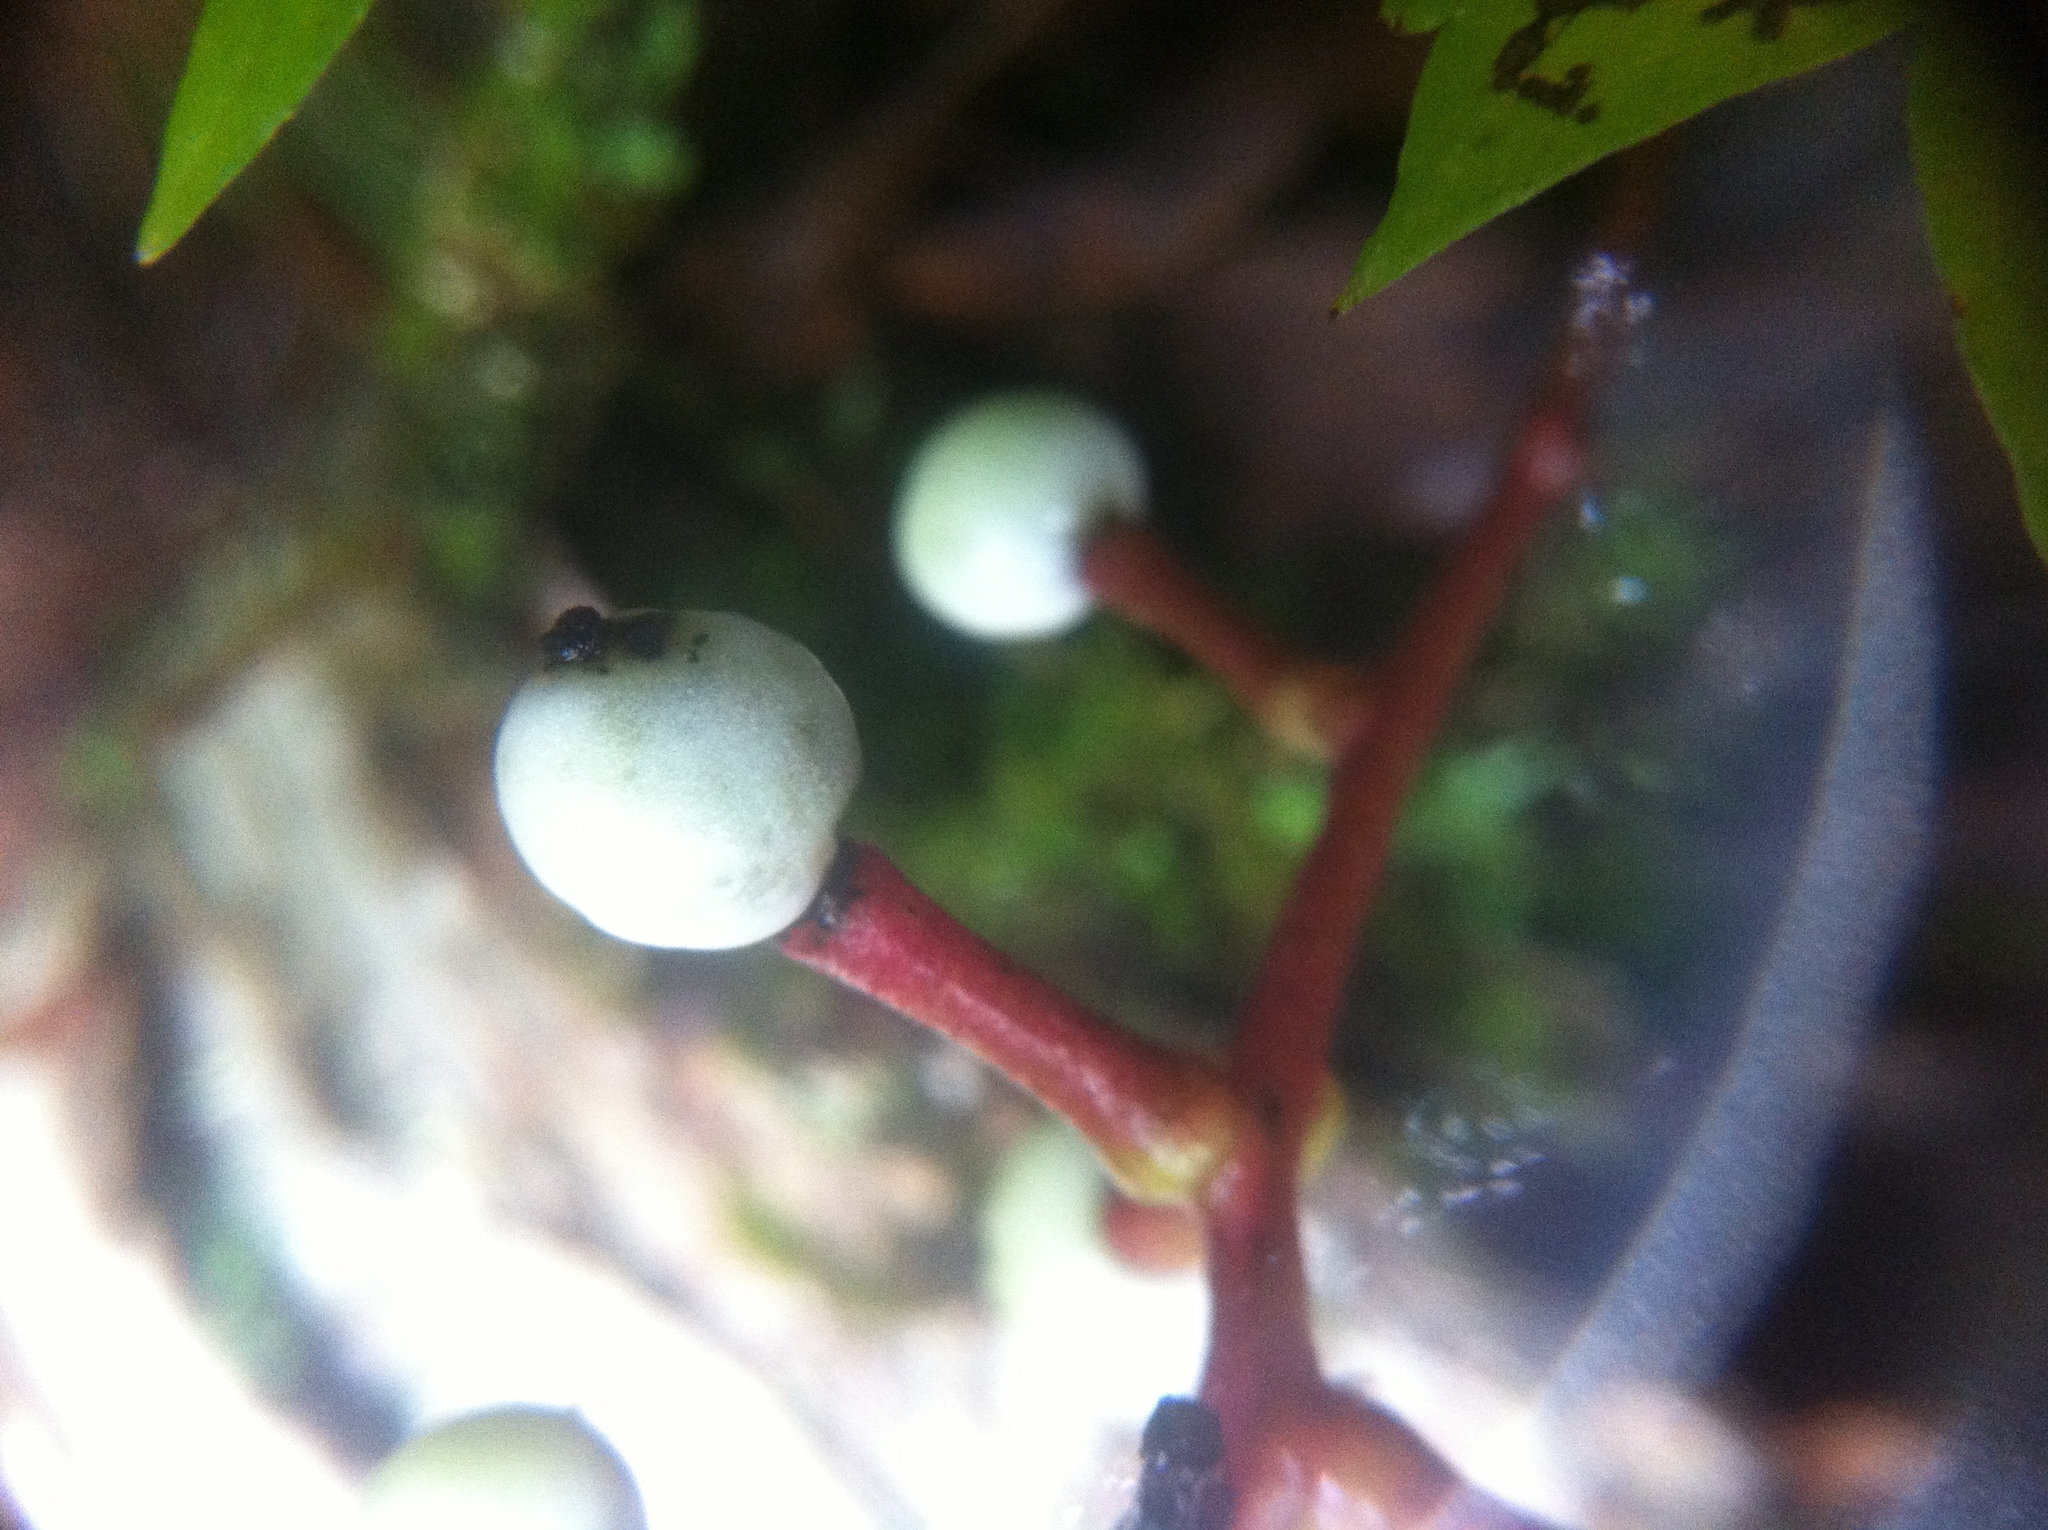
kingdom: Plantae
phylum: Tracheophyta
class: Magnoliopsida
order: Ranunculales
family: Ranunculaceae
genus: Actaea
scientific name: Actaea pachypoda
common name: Doll's-eyes
